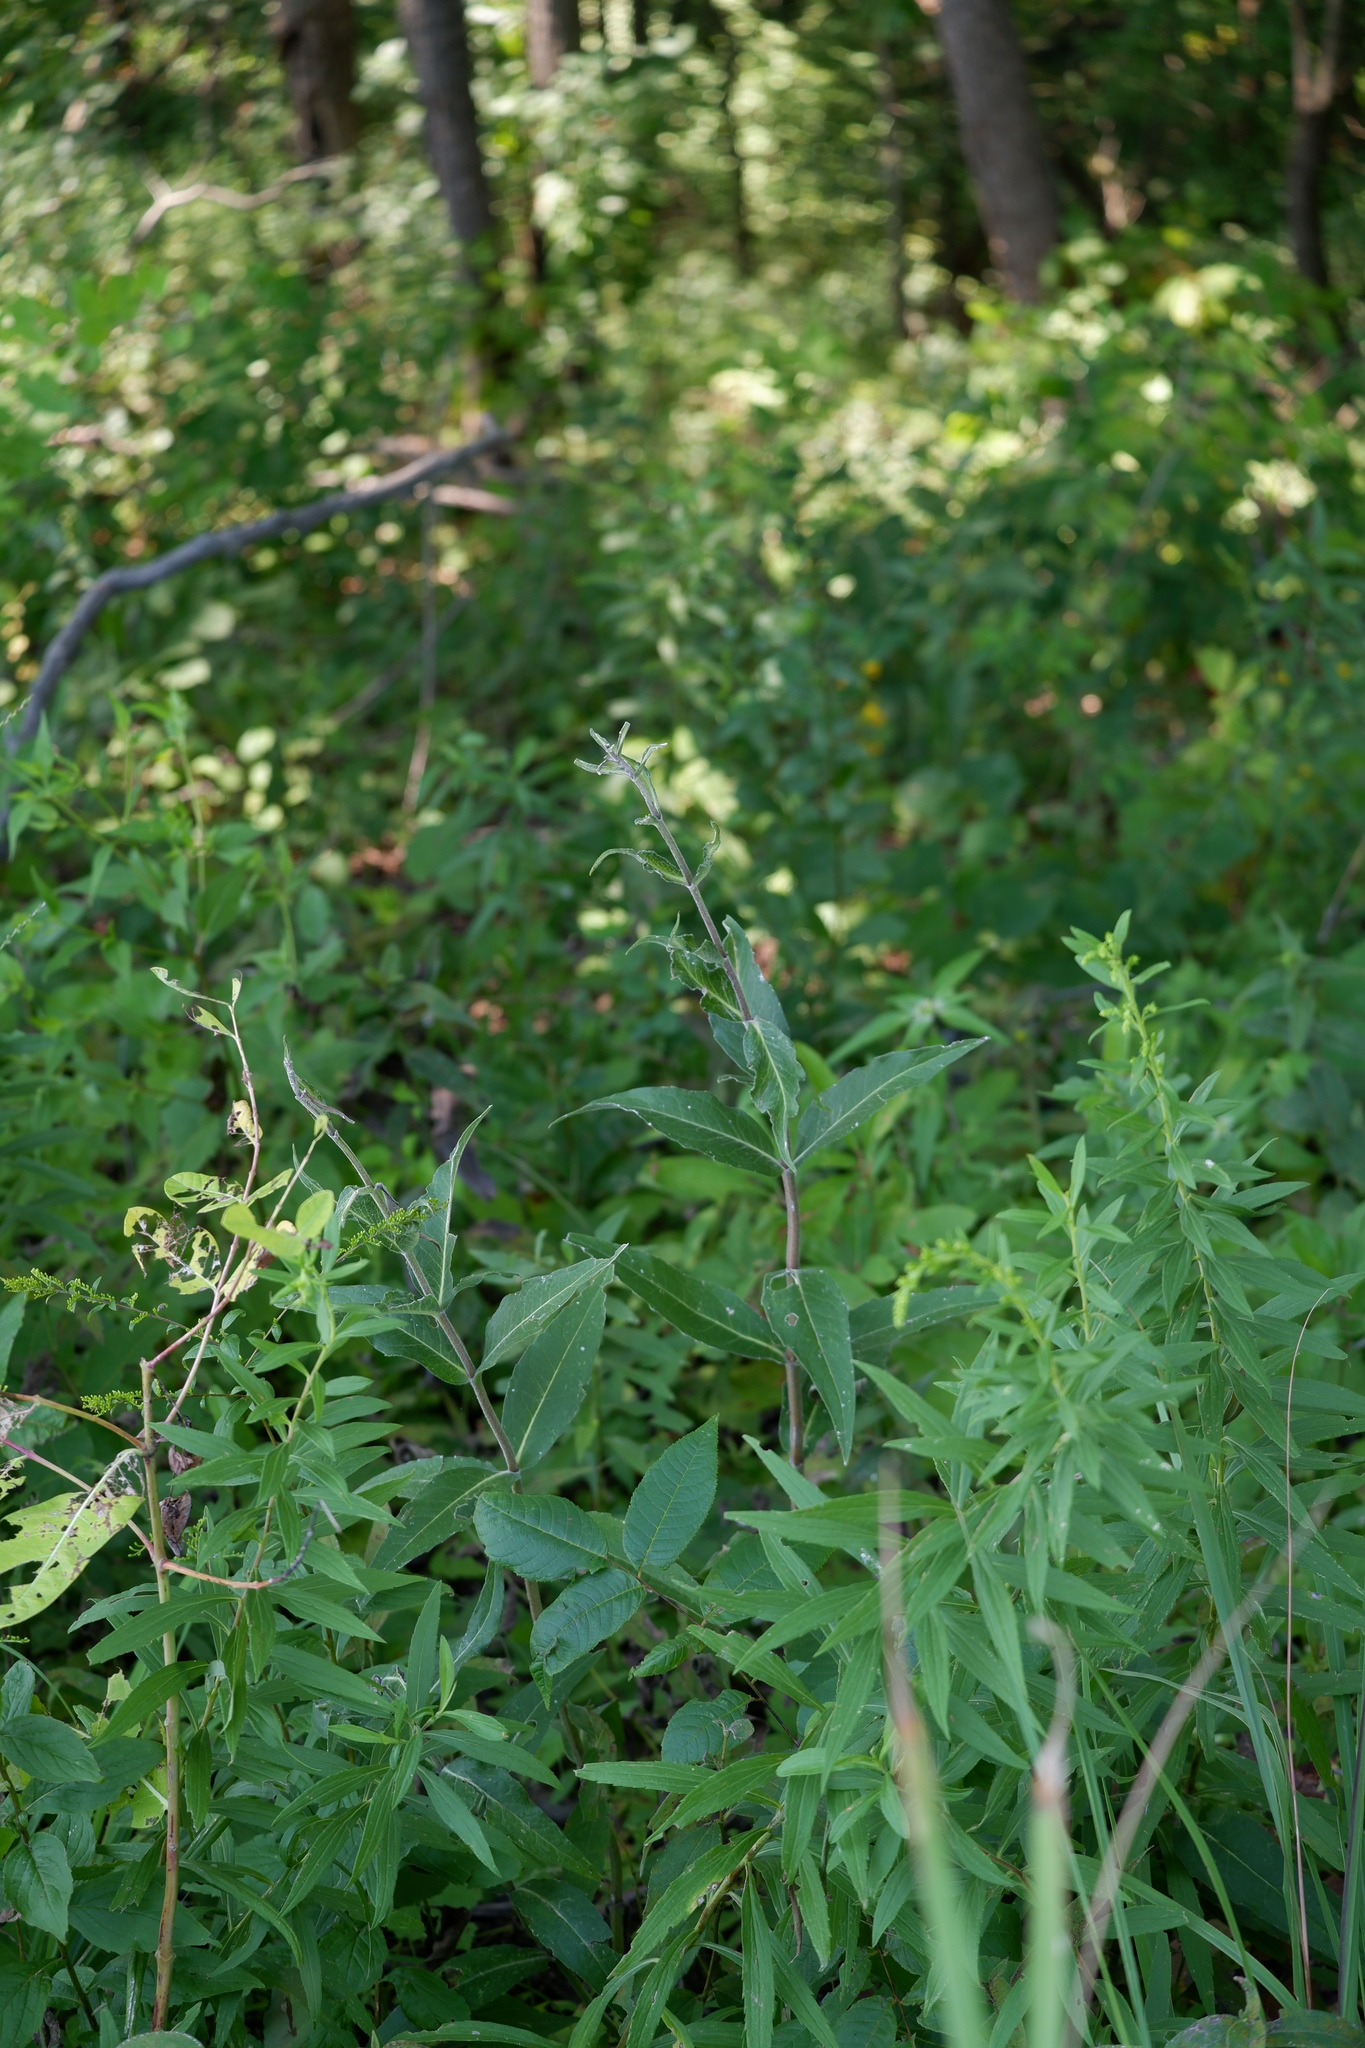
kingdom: Plantae
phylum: Tracheophyta
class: Magnoliopsida
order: Asterales
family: Asteraceae
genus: Silphium
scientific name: Silphium integrifolium
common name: Whole-leaf rosinweed
